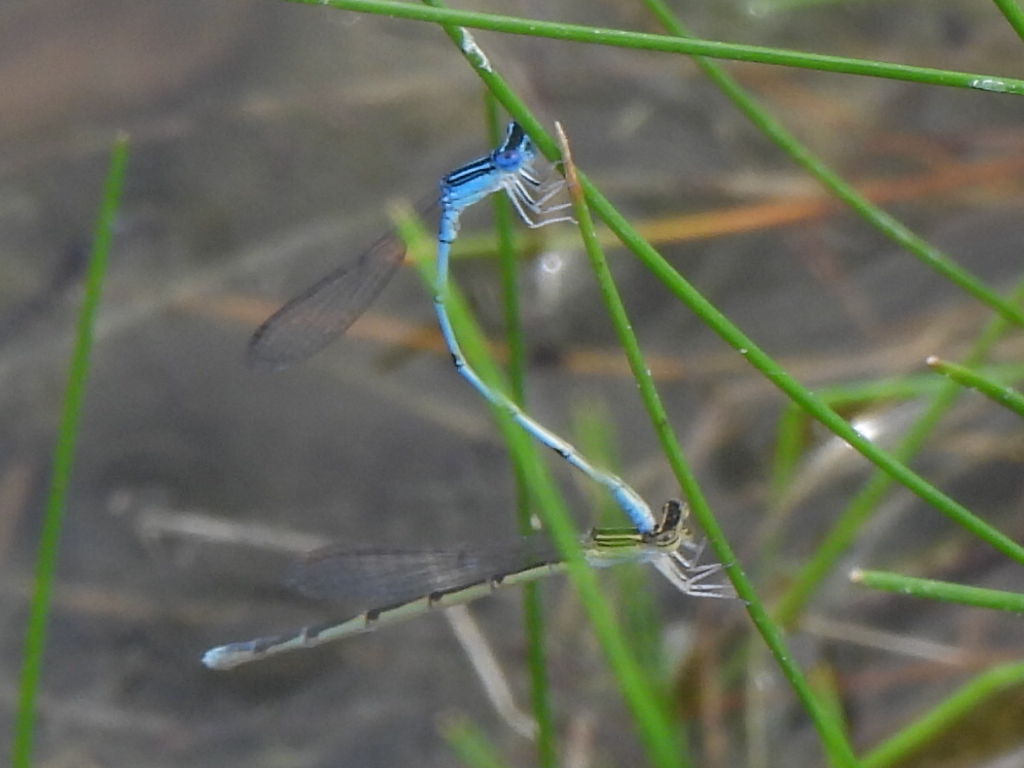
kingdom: Animalia
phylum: Arthropoda
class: Insecta
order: Odonata
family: Coenagrionidae
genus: Enallagma
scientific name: Enallagma basidens
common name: Double-striped bluet
